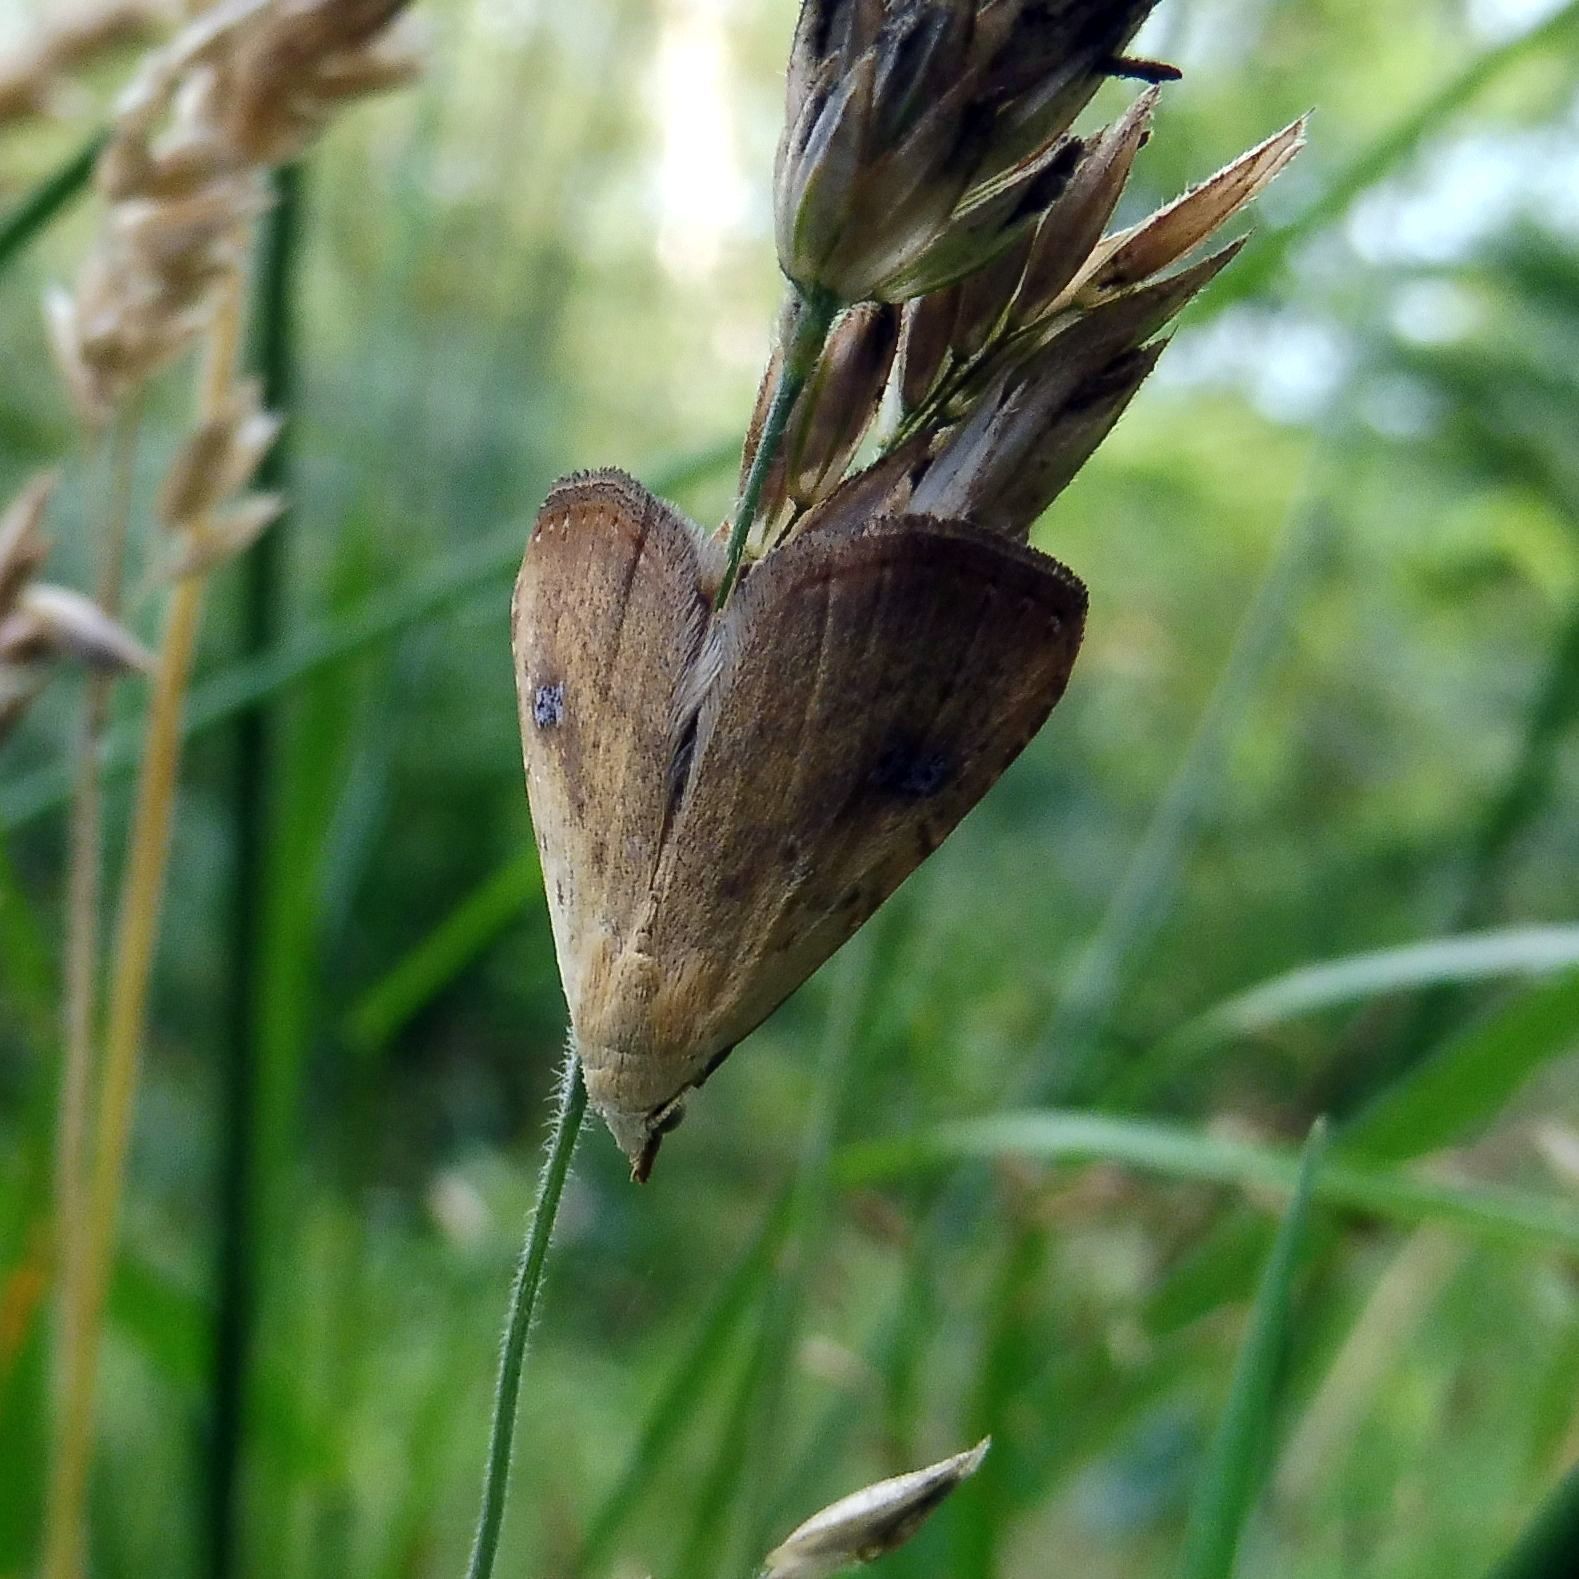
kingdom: Animalia
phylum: Arthropoda
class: Insecta
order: Lepidoptera
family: Erebidae
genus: Rivula
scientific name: Rivula sericealis
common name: Straw dot
